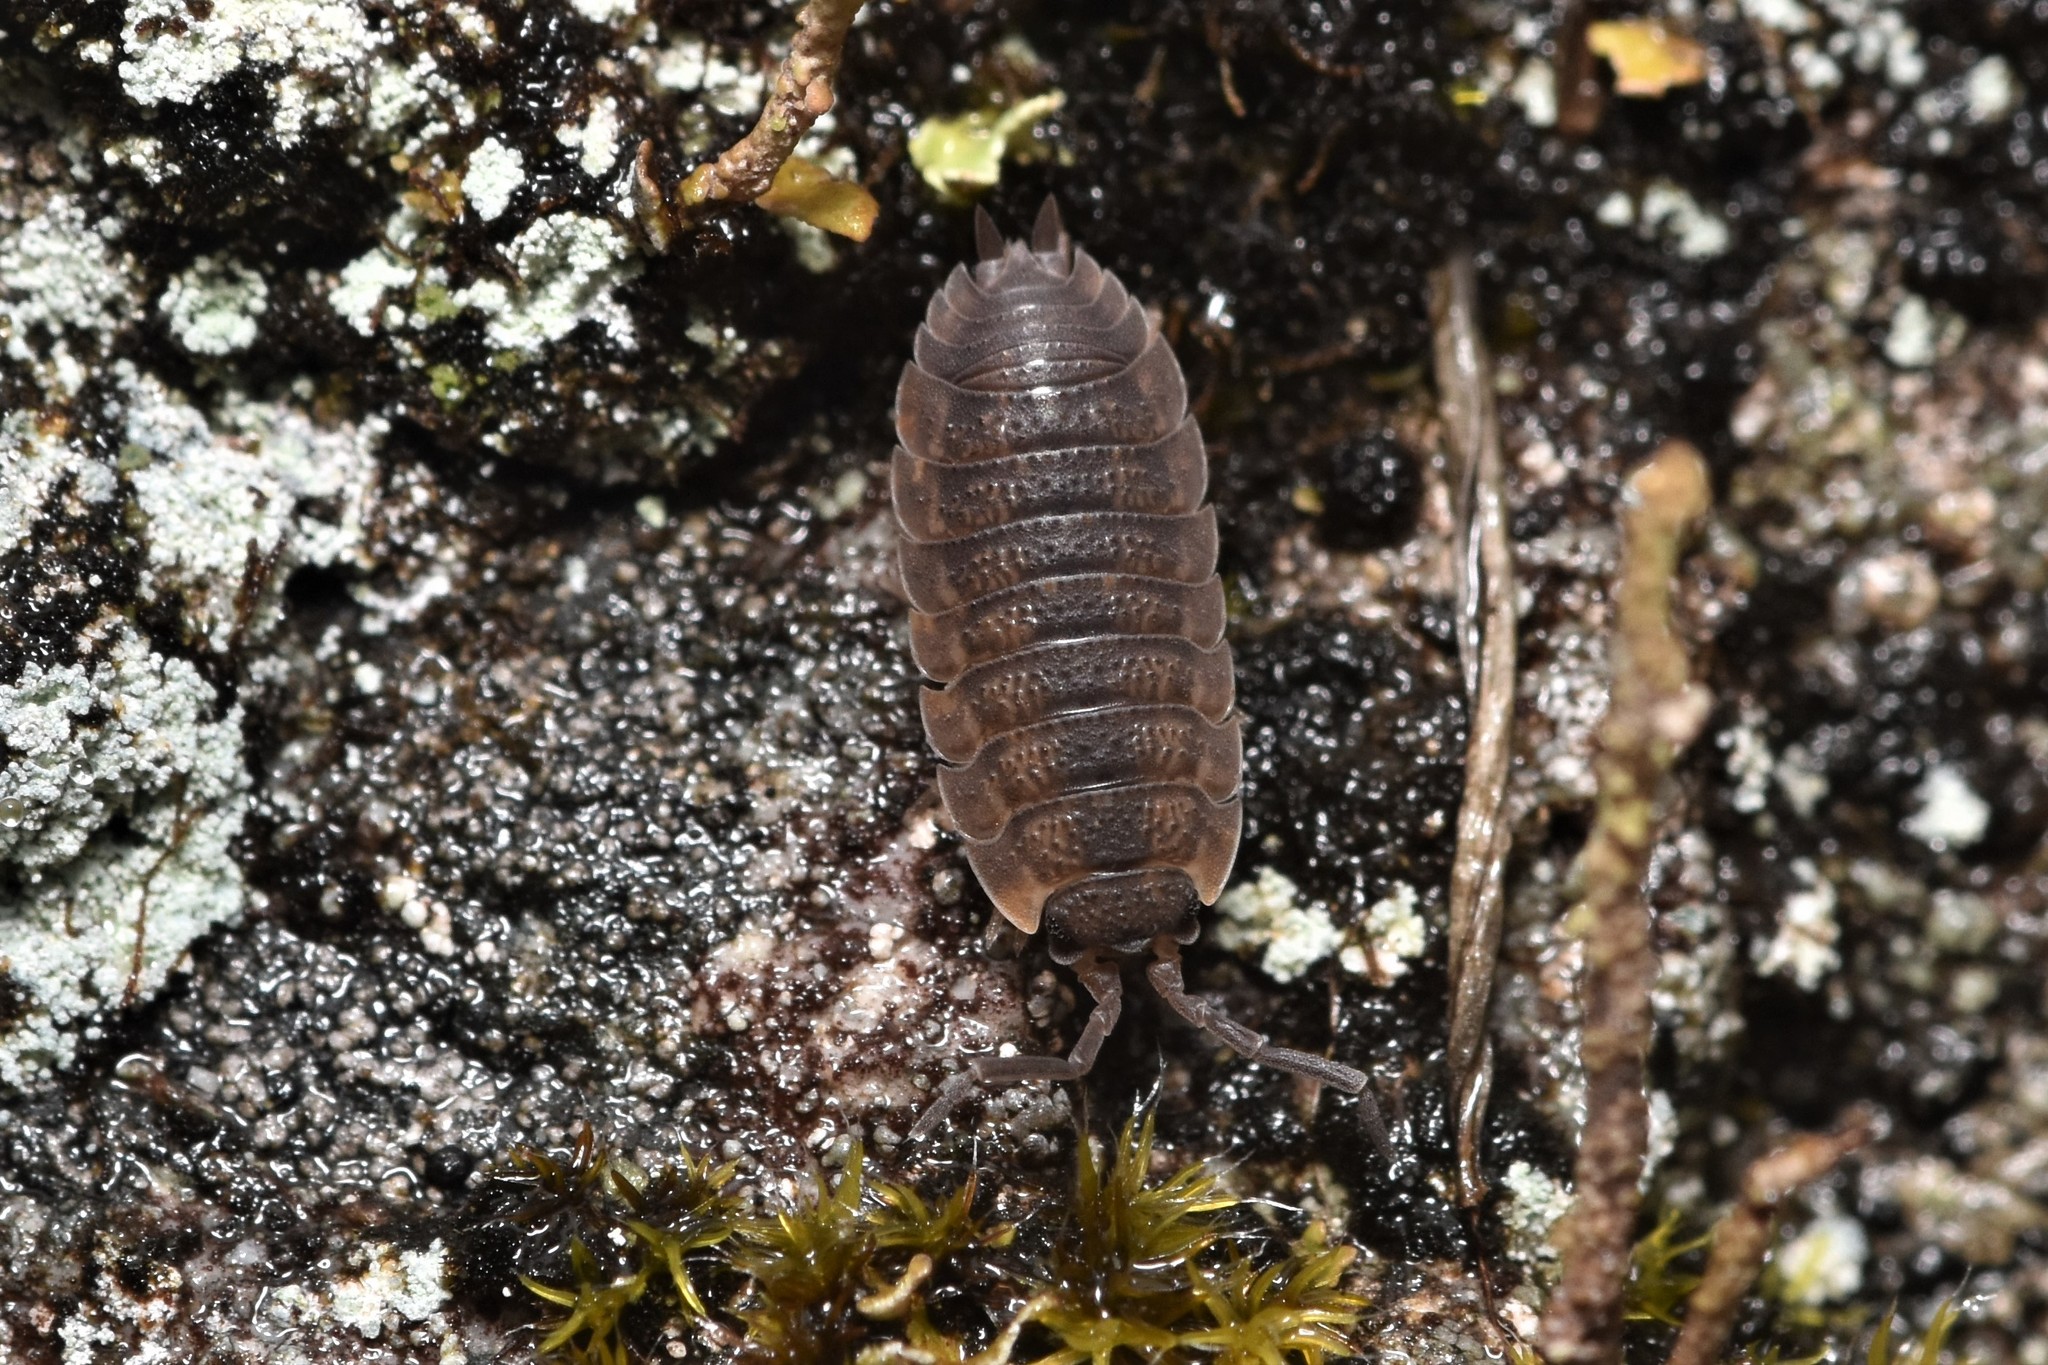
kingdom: Animalia
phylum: Arthropoda
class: Malacostraca
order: Isopoda
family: Porcellionidae
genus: Porcellio
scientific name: Porcellio scaber
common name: Common rough woodlouse
